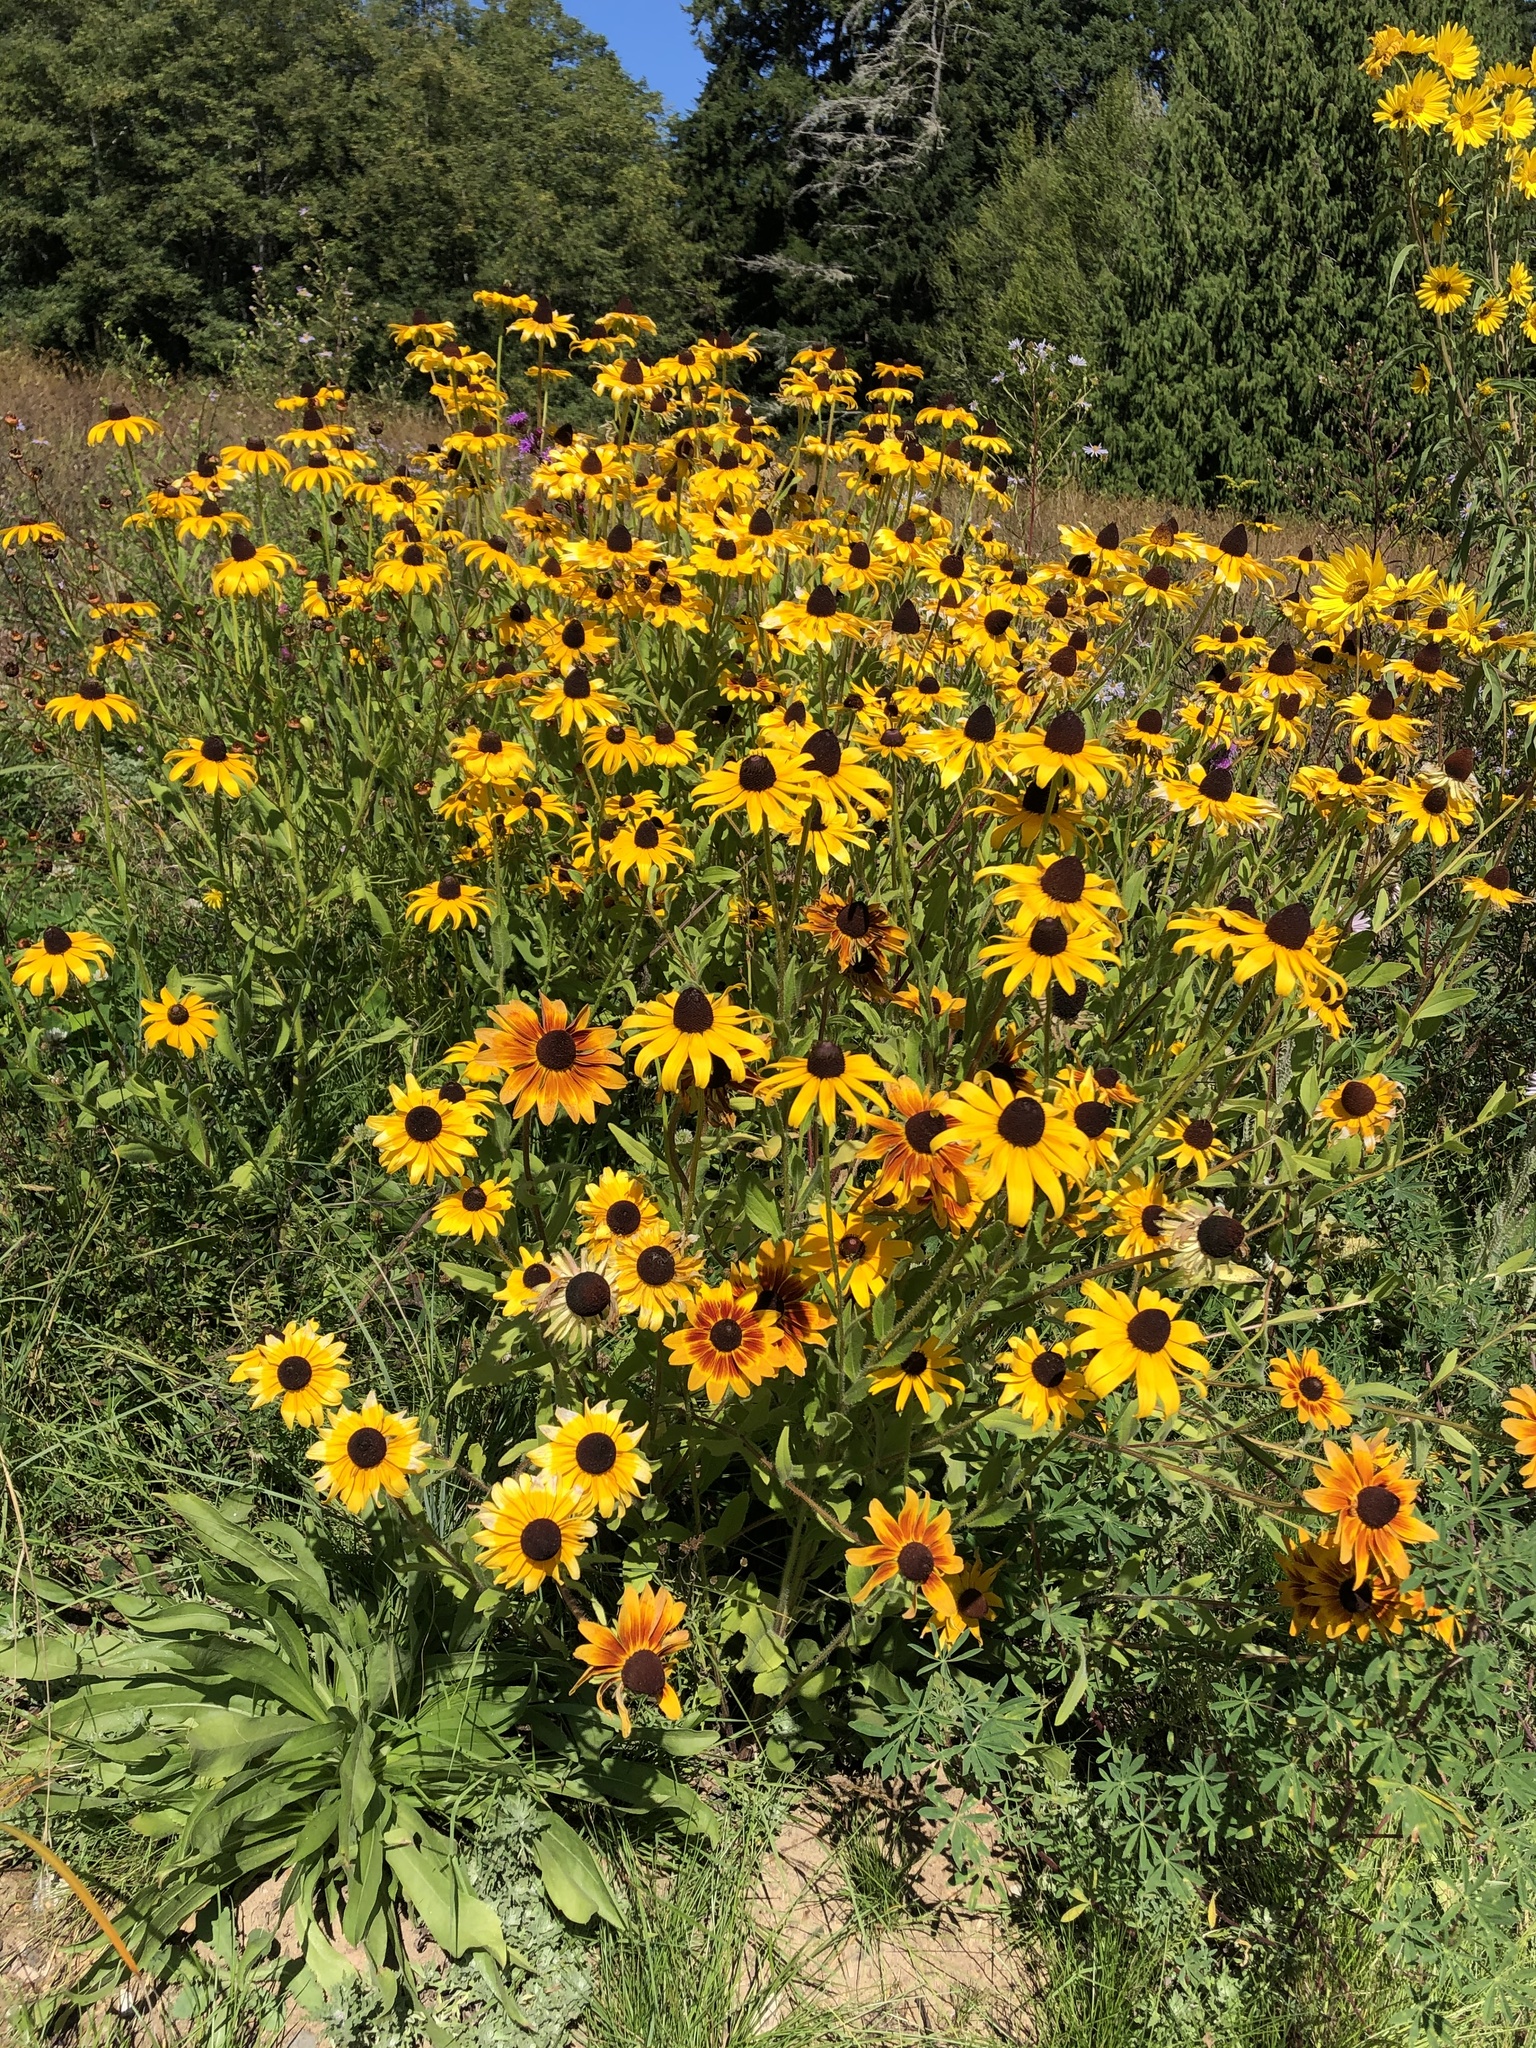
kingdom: Plantae
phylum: Tracheophyta
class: Magnoliopsida
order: Asterales
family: Asteraceae
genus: Rudbeckia
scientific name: Rudbeckia hirta
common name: Black-eyed-susan
